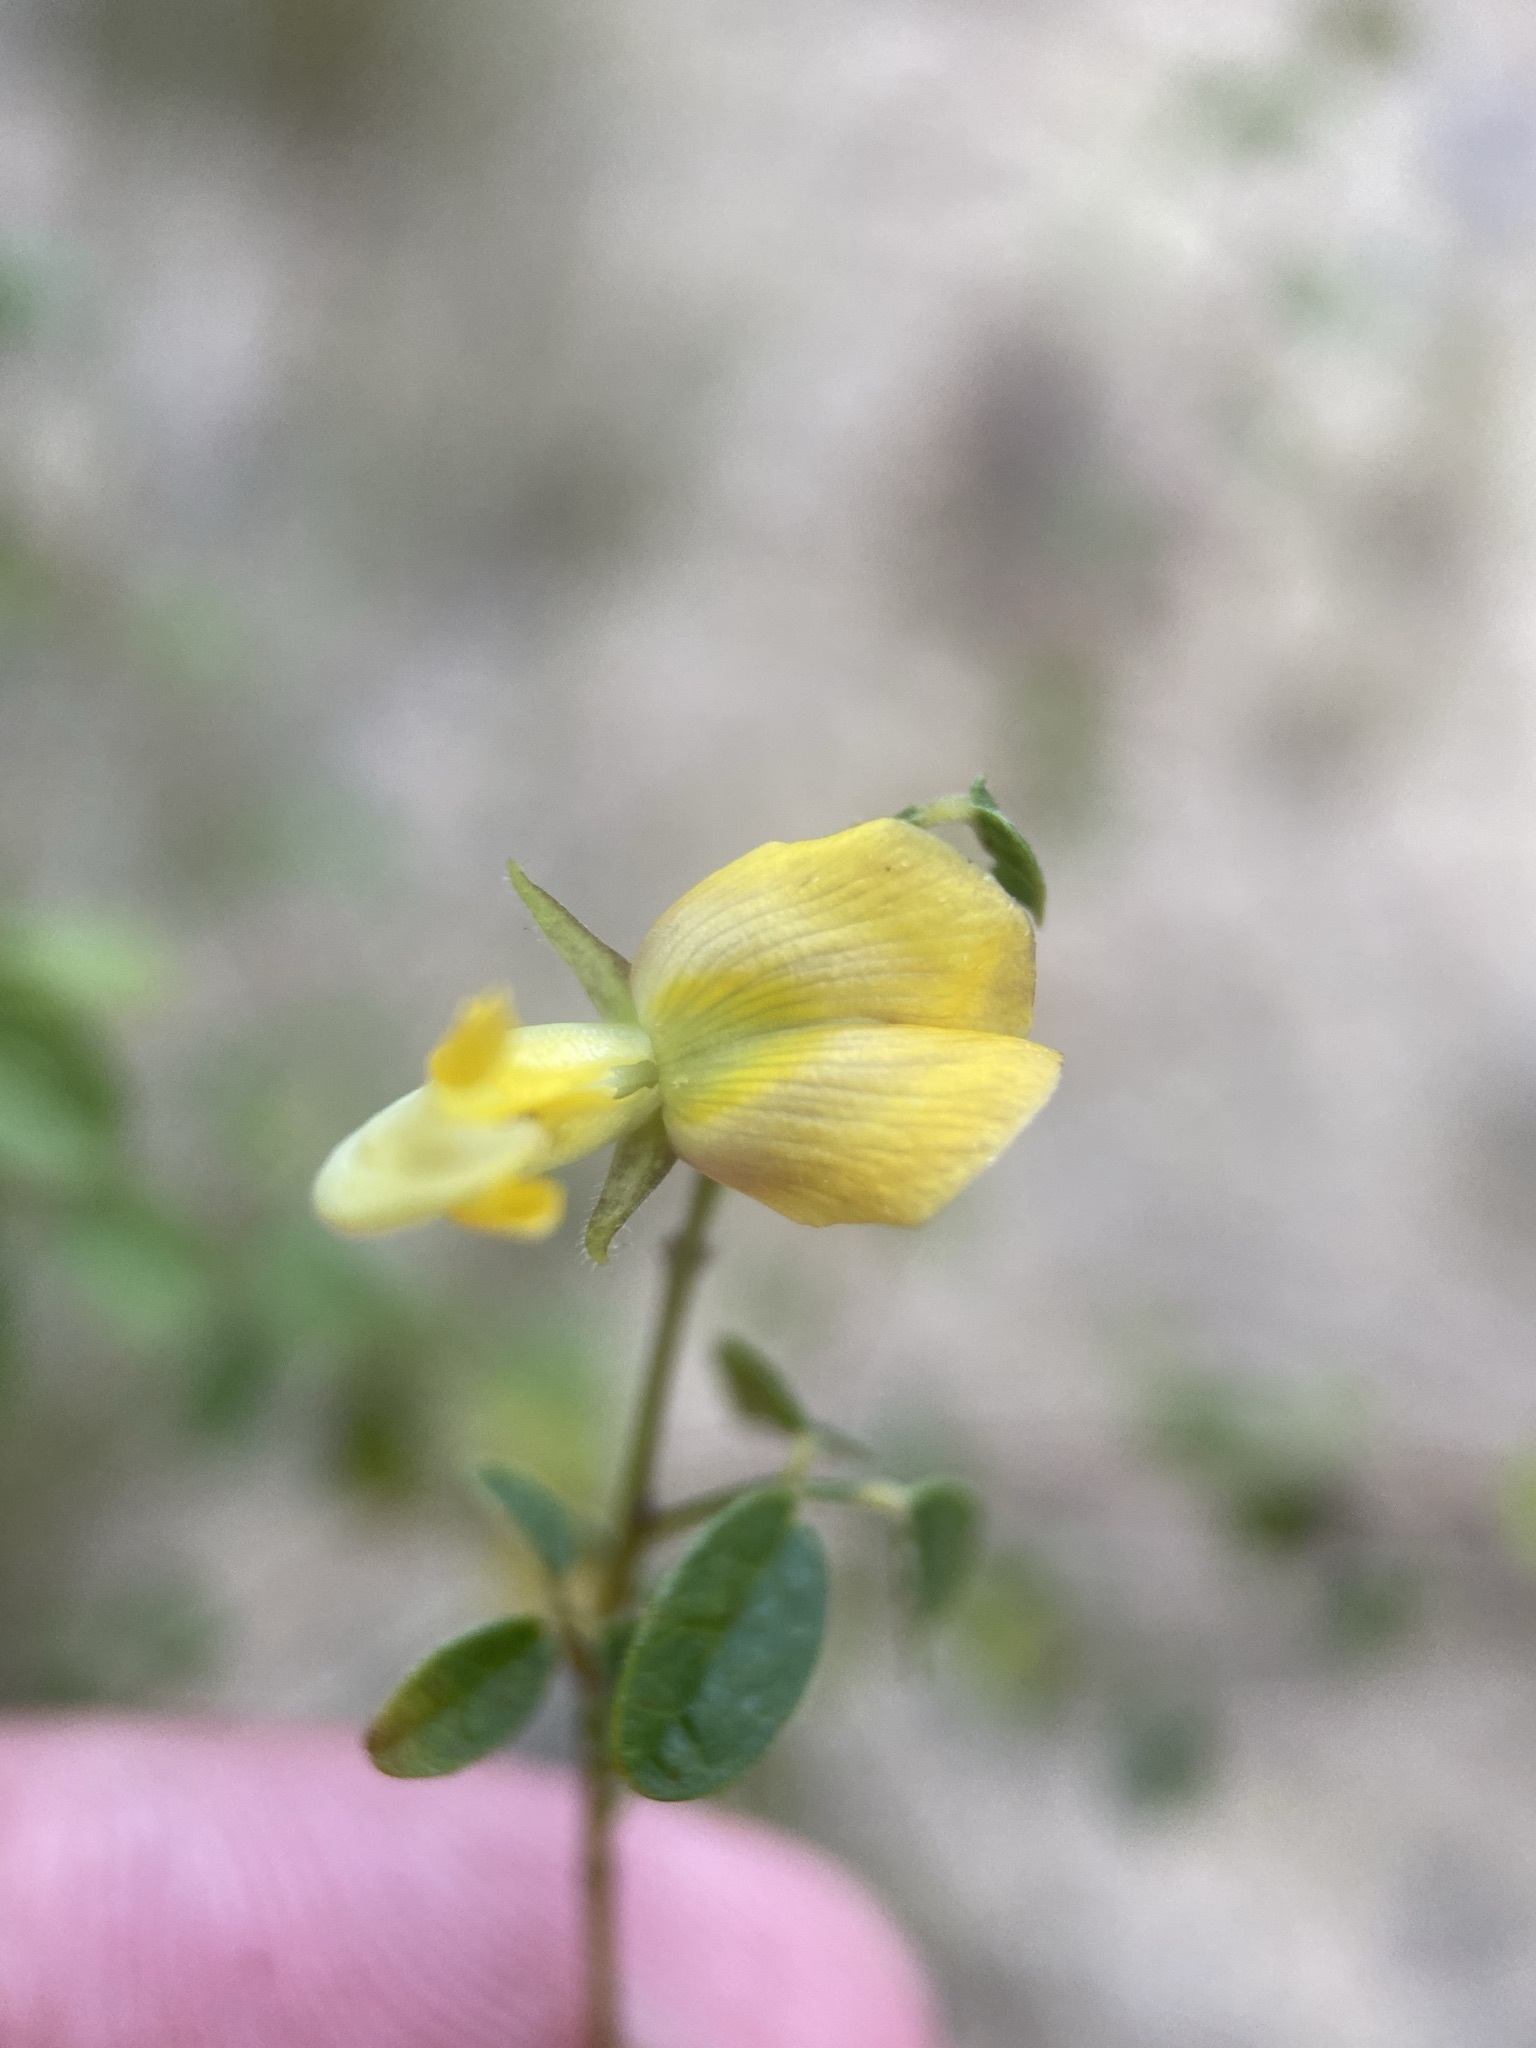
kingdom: Plantae
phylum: Tracheophyta
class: Magnoliopsida
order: Fabales
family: Fabaceae
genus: Rhynchosia
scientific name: Rhynchosia cytisoides
